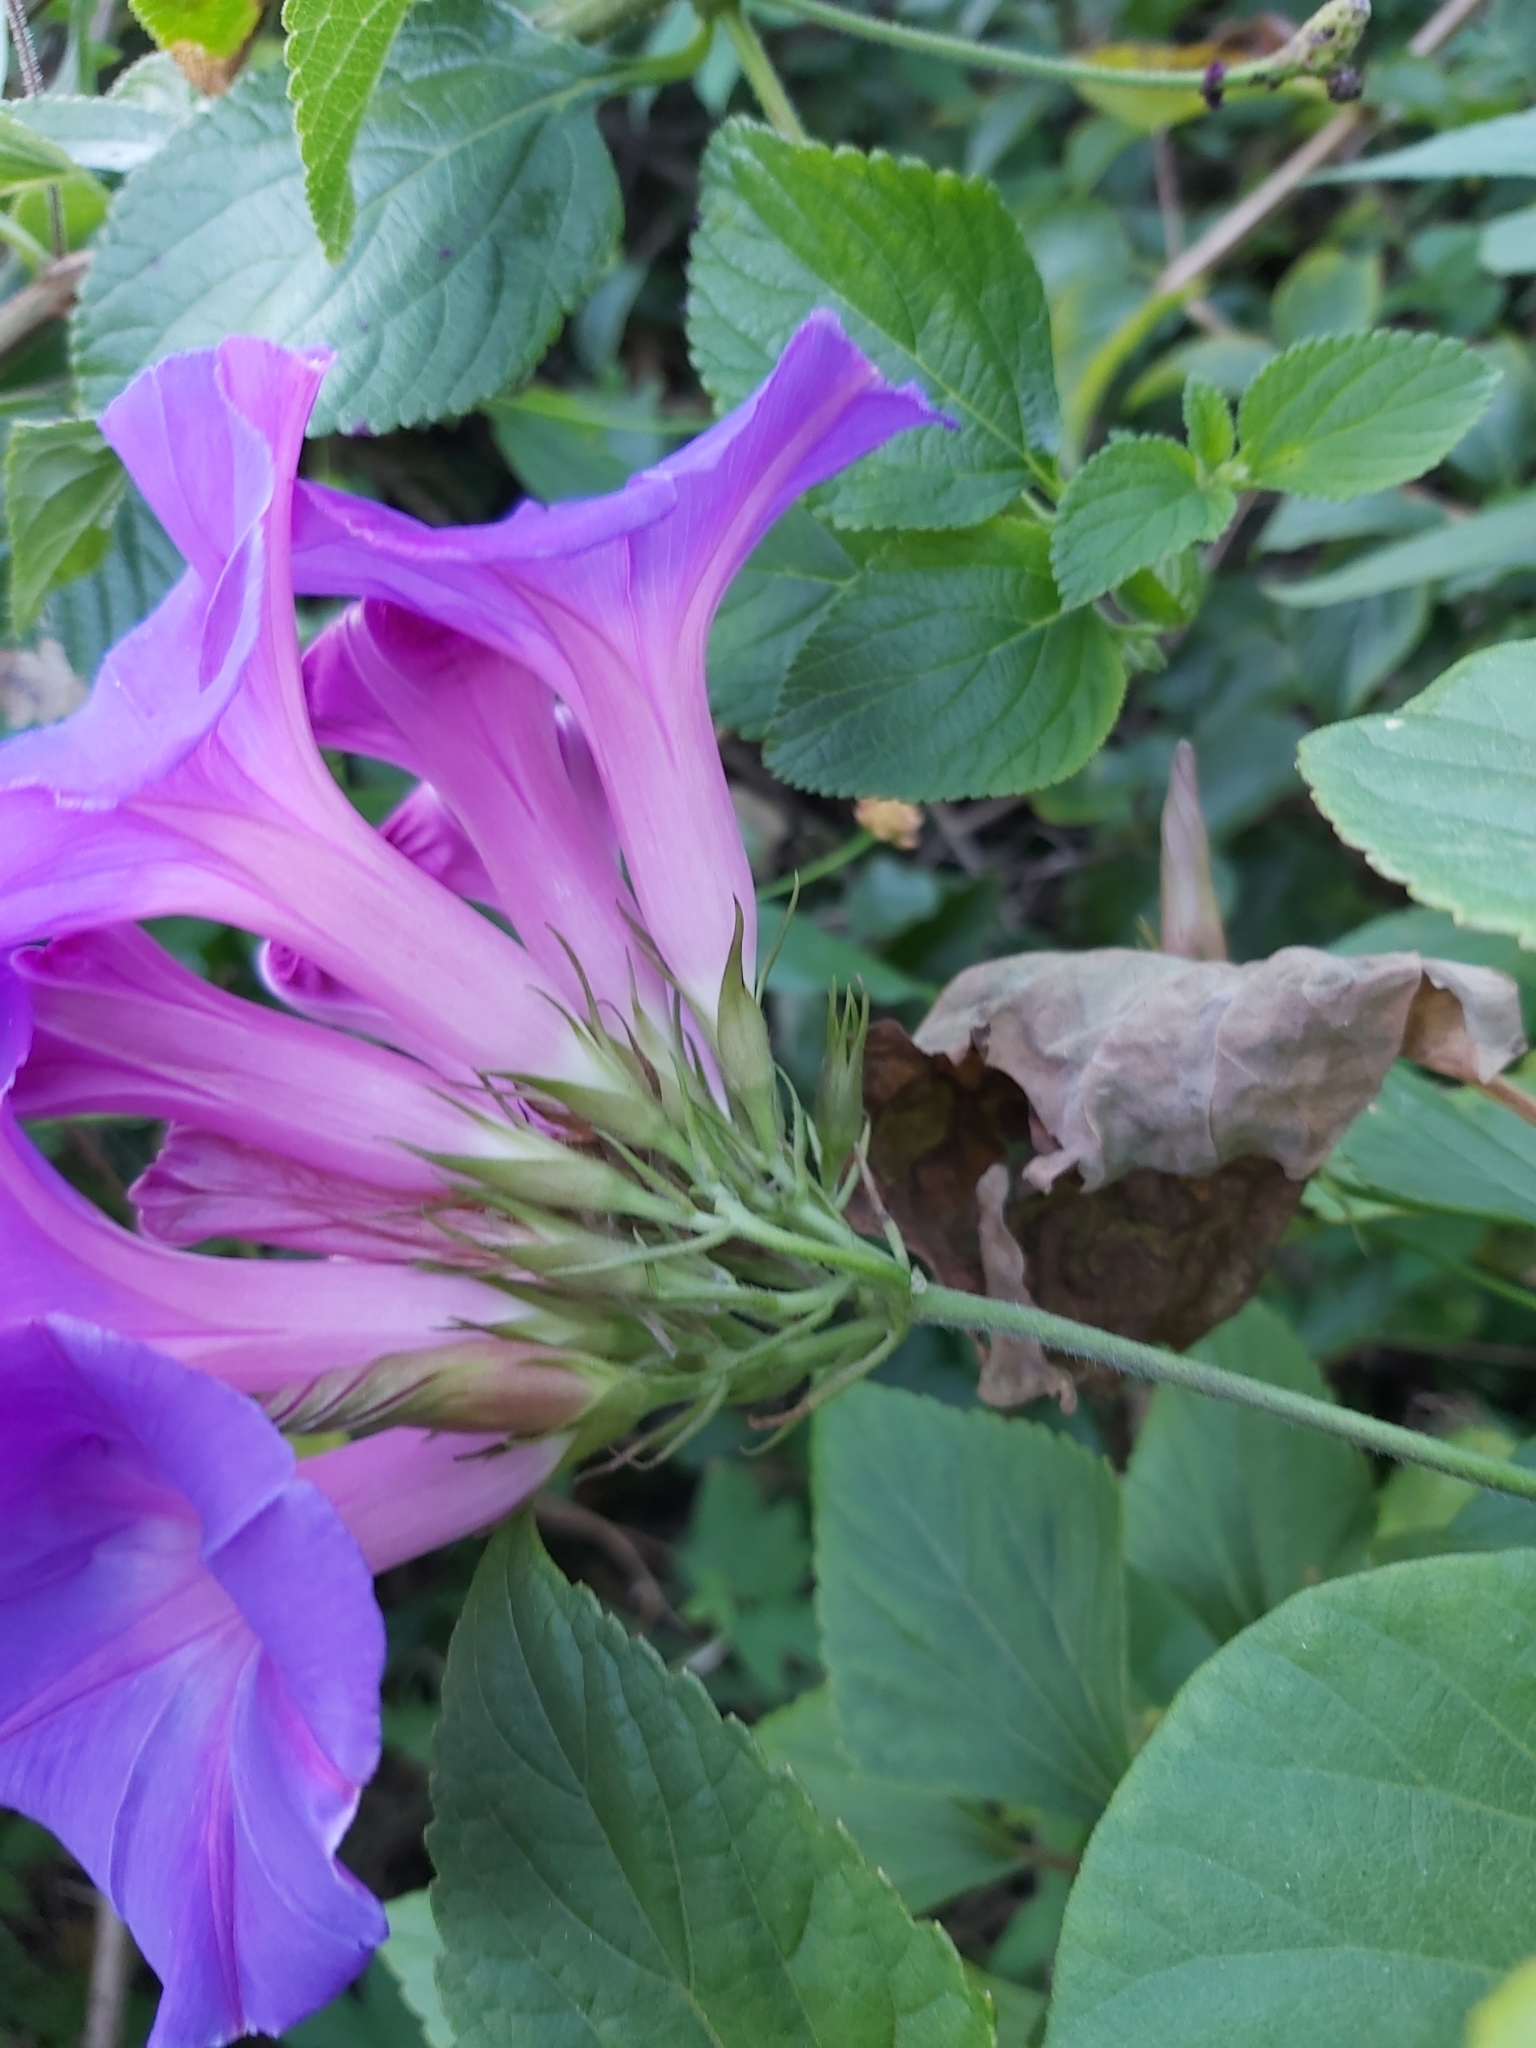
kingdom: Plantae
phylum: Tracheophyta
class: Magnoliopsida
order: Solanales
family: Convolvulaceae
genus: Ipomoea
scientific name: Ipomoea indica
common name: Blue dawnflower
